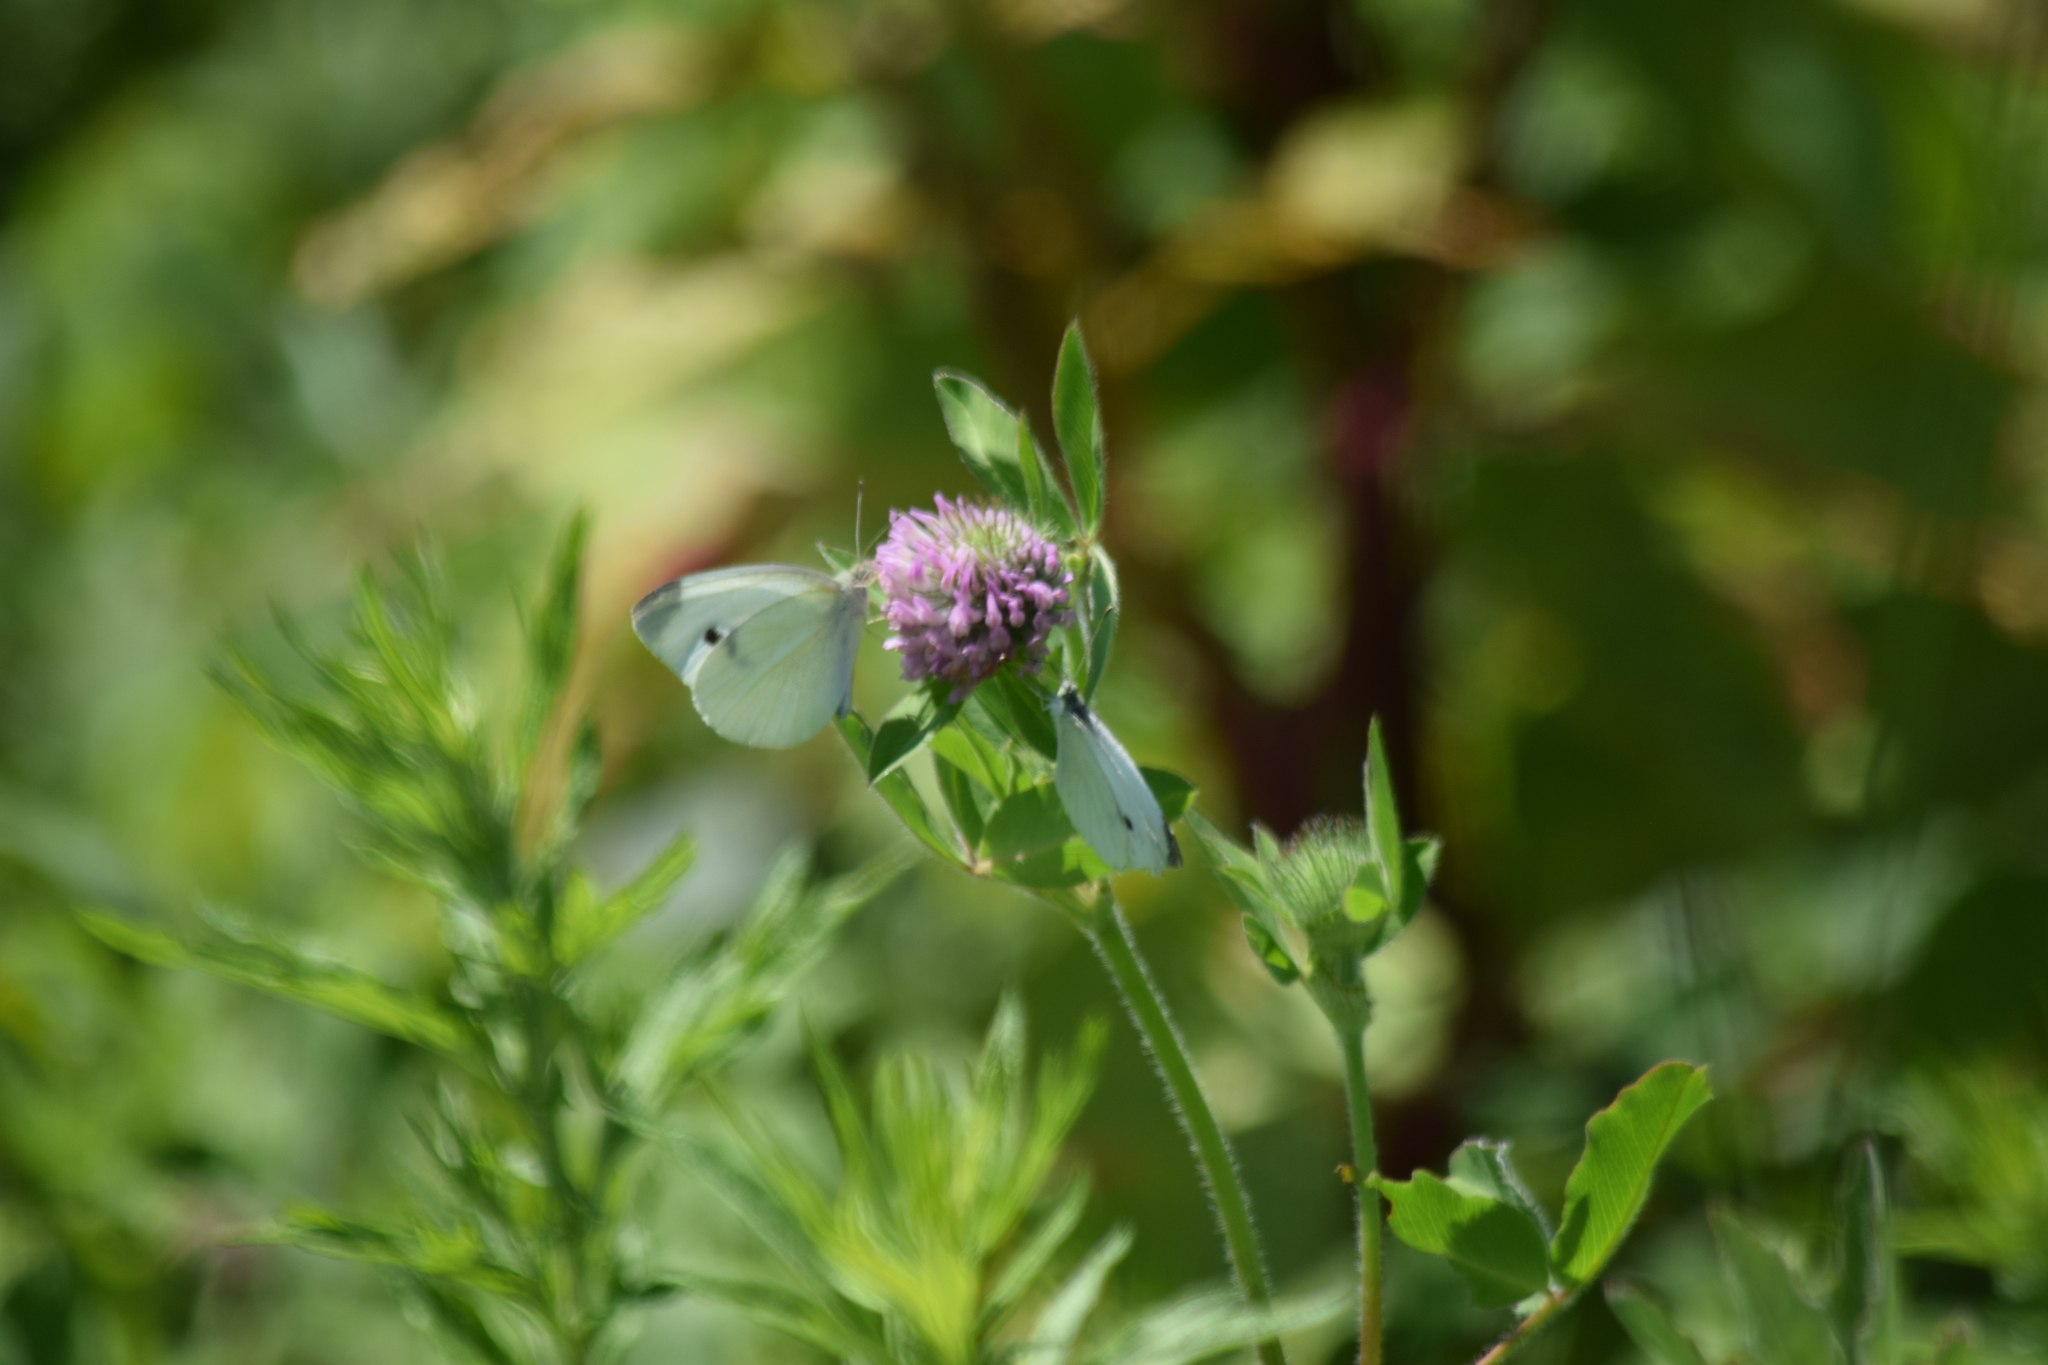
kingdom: Animalia
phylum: Arthropoda
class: Insecta
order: Lepidoptera
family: Pieridae
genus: Pieris
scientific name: Pieris rapae
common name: Small white
